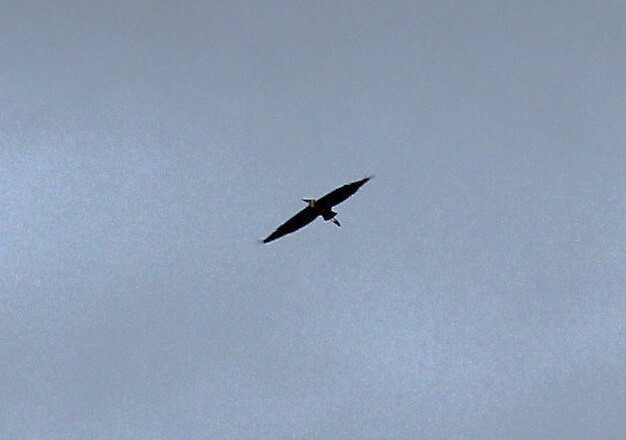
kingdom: Animalia
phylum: Chordata
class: Aves
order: Pelecaniformes
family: Ardeidae
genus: Ardea
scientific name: Ardea cinerea
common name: Grey heron
